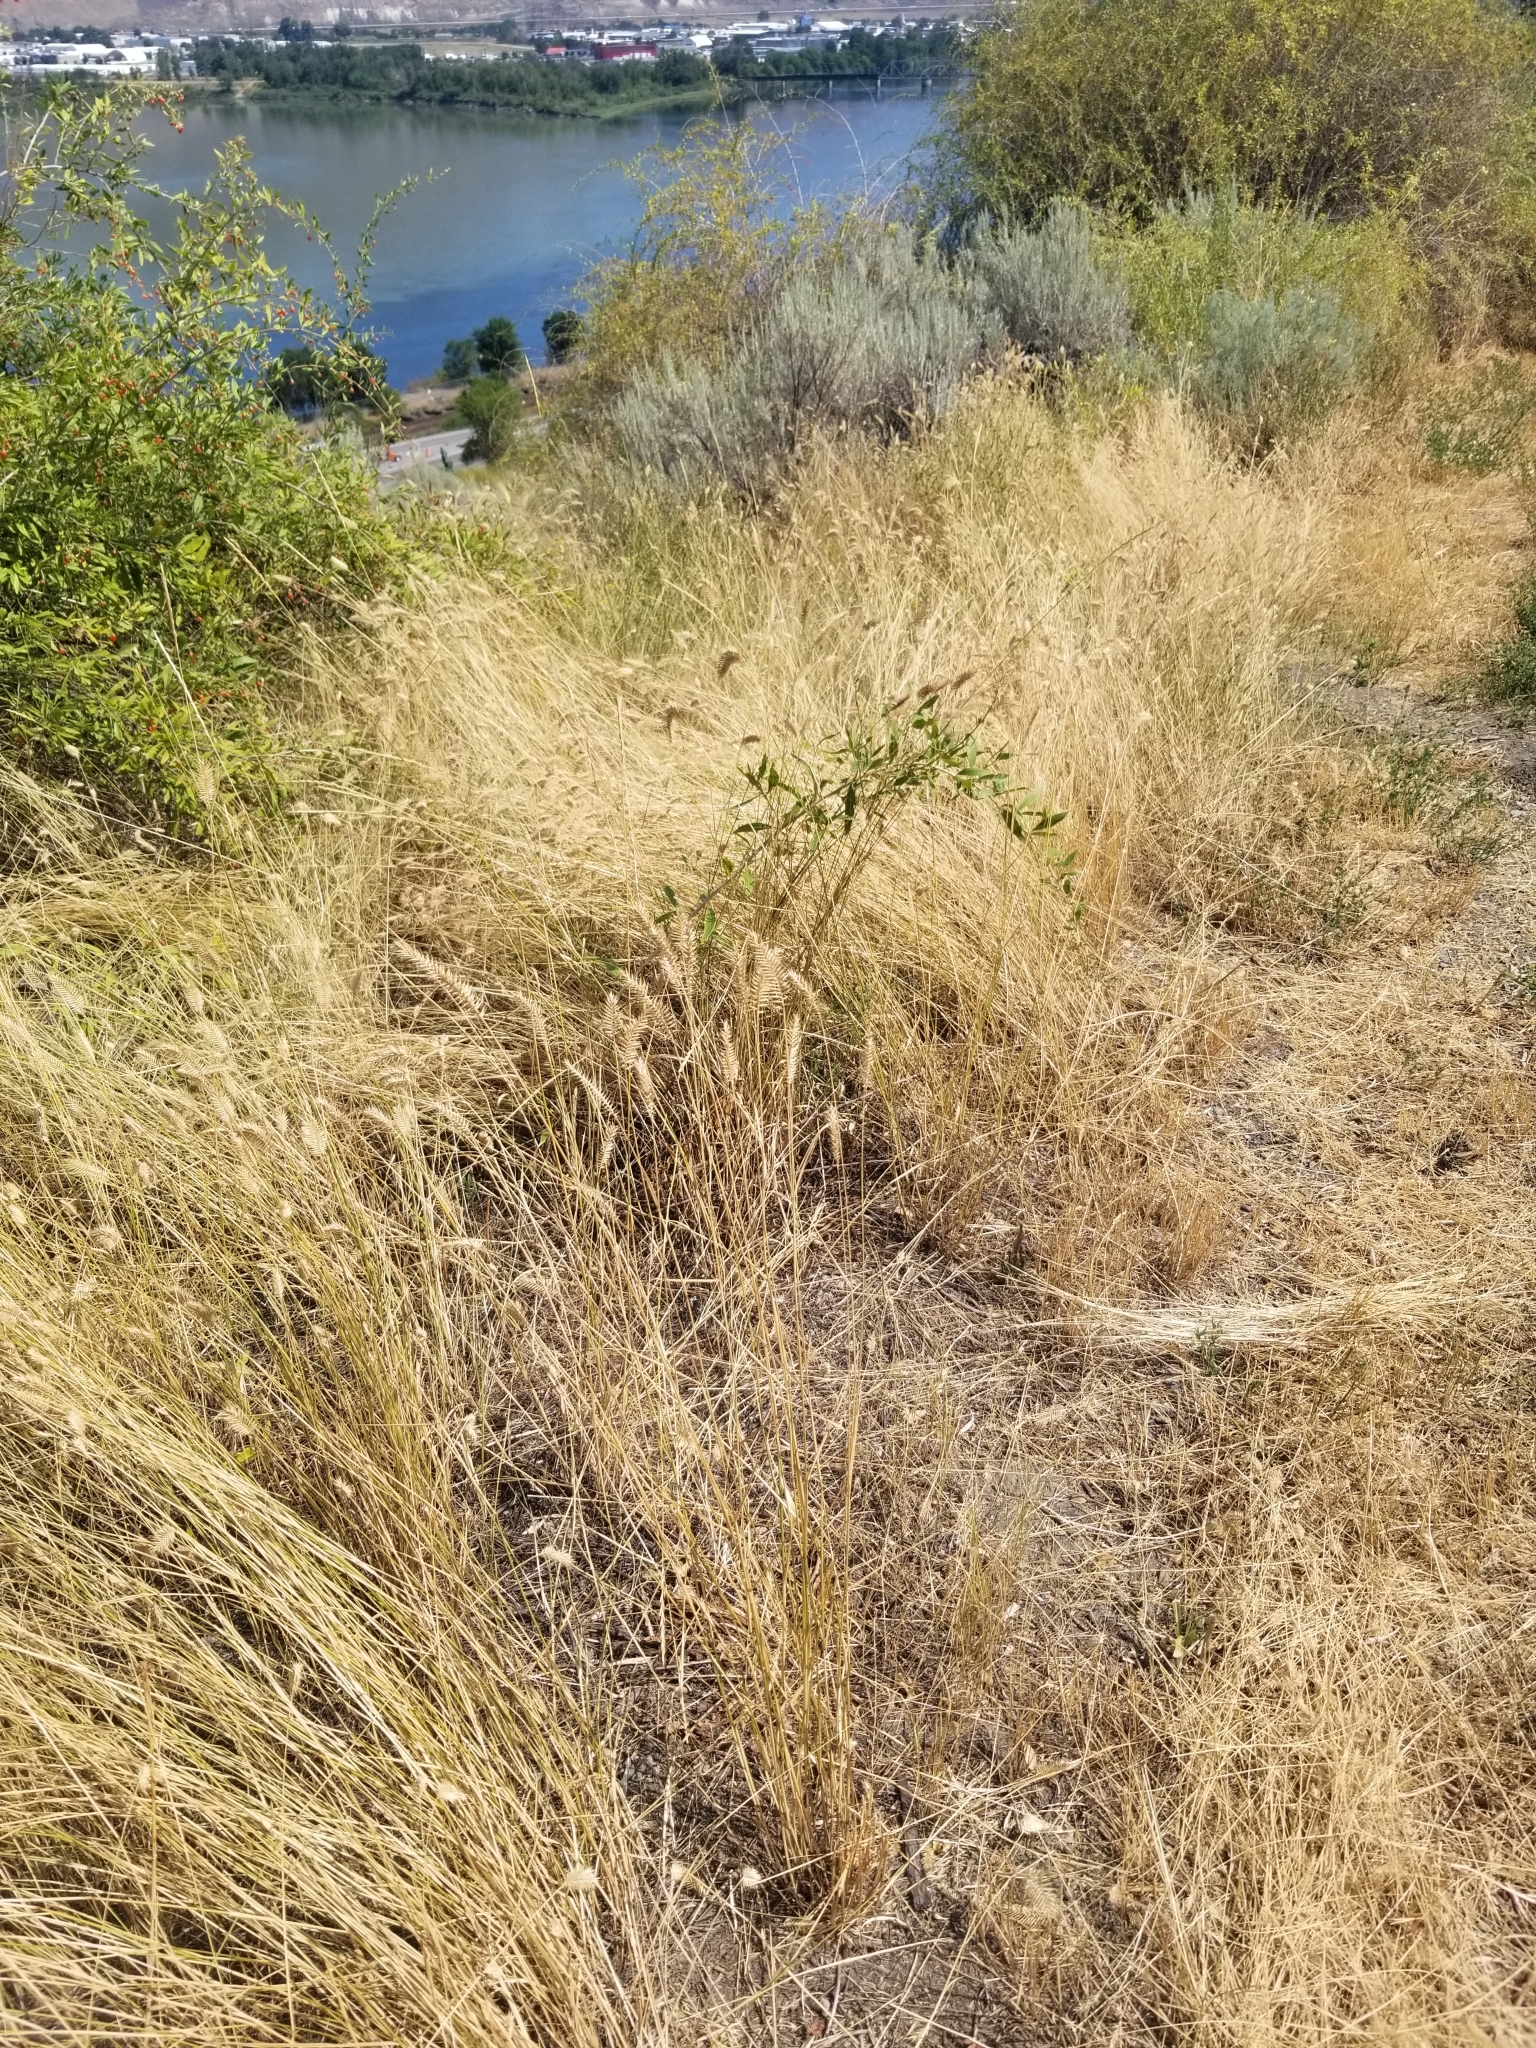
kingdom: Plantae
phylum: Tracheophyta
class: Liliopsida
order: Poales
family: Poaceae
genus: Agropyron
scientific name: Agropyron cristatum
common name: Crested wheatgrass
